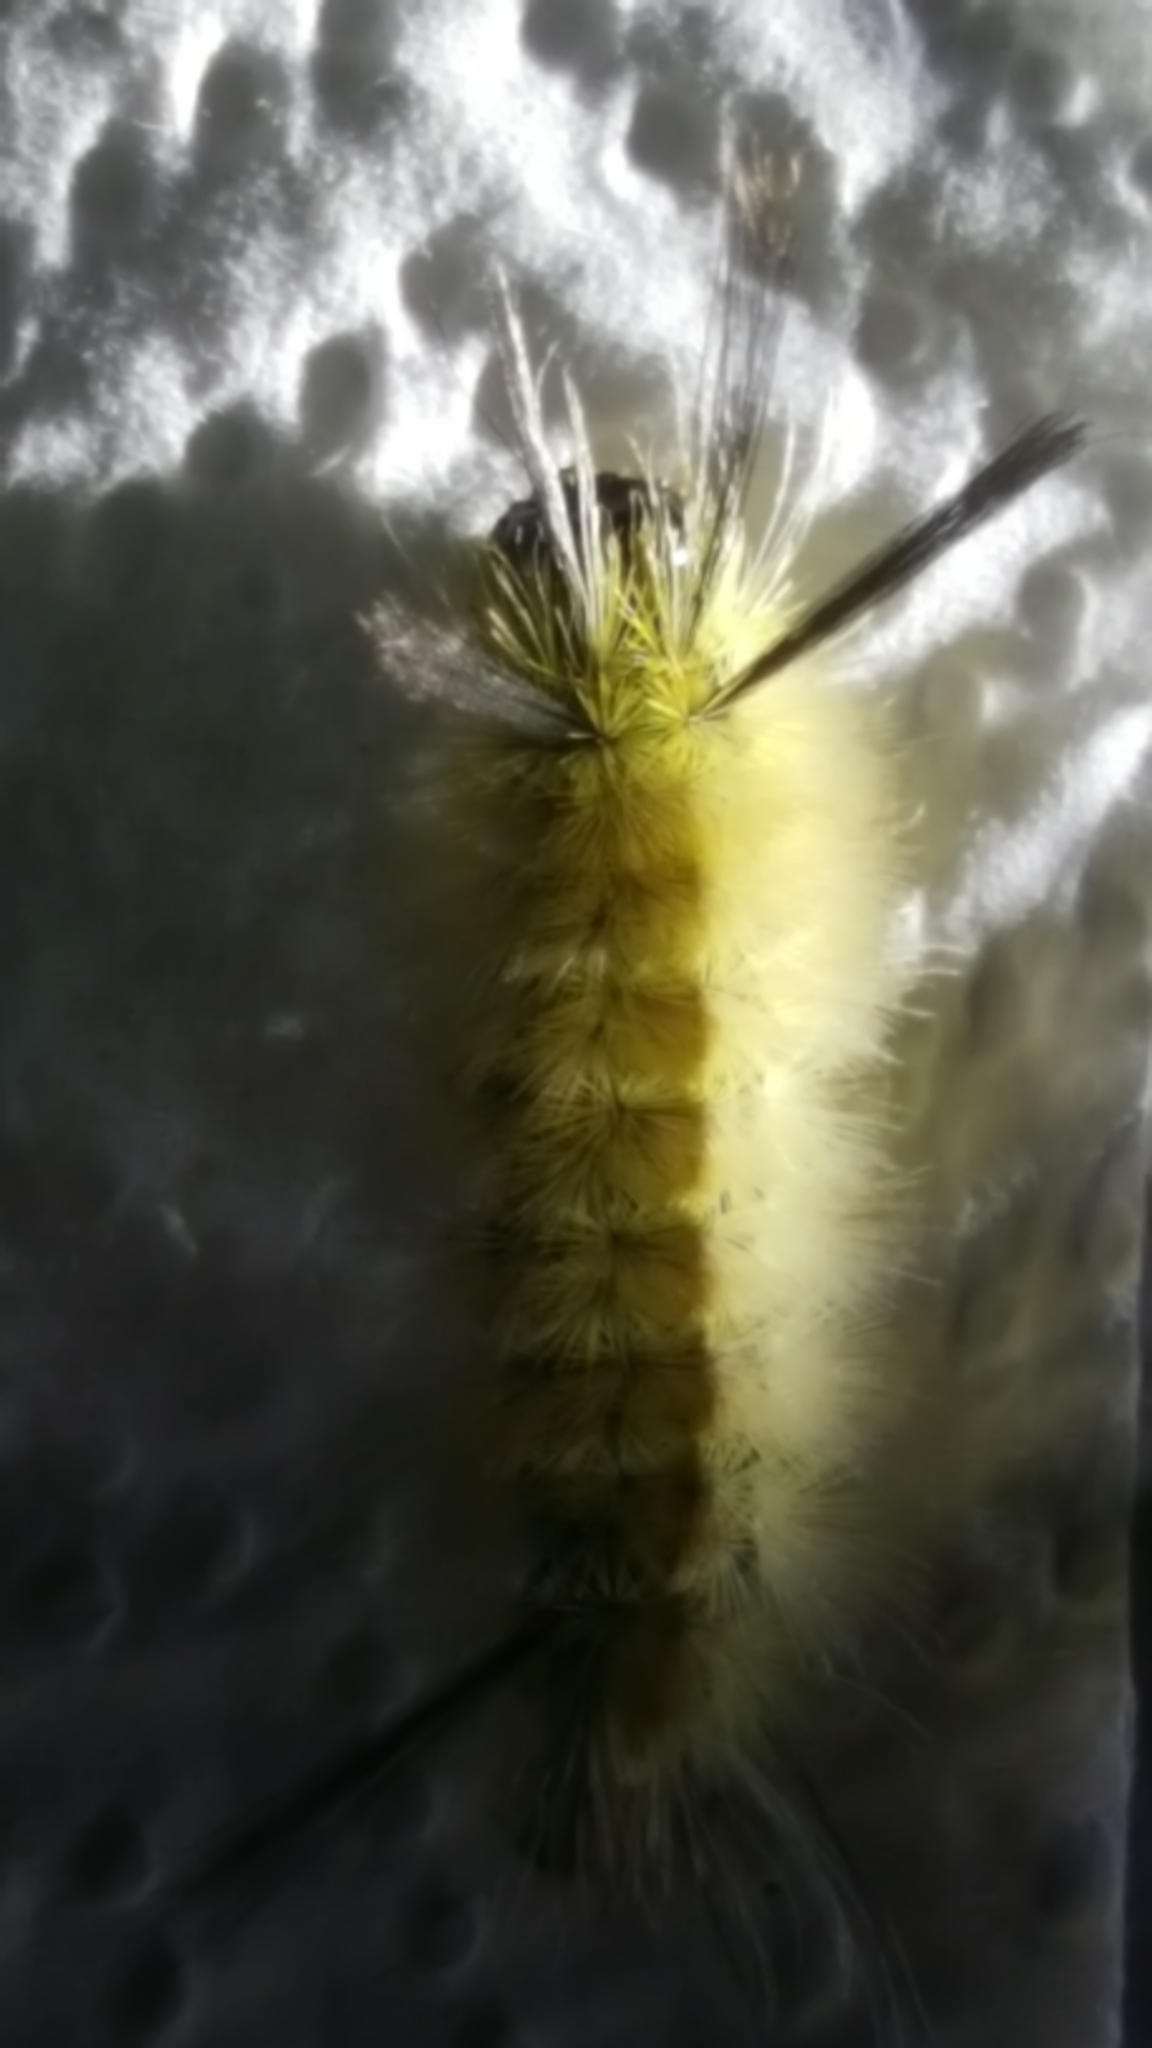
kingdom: Animalia
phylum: Arthropoda
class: Insecta
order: Lepidoptera
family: Erebidae
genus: Halysidota
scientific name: Halysidota tessellaris
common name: Banded tussock moth
